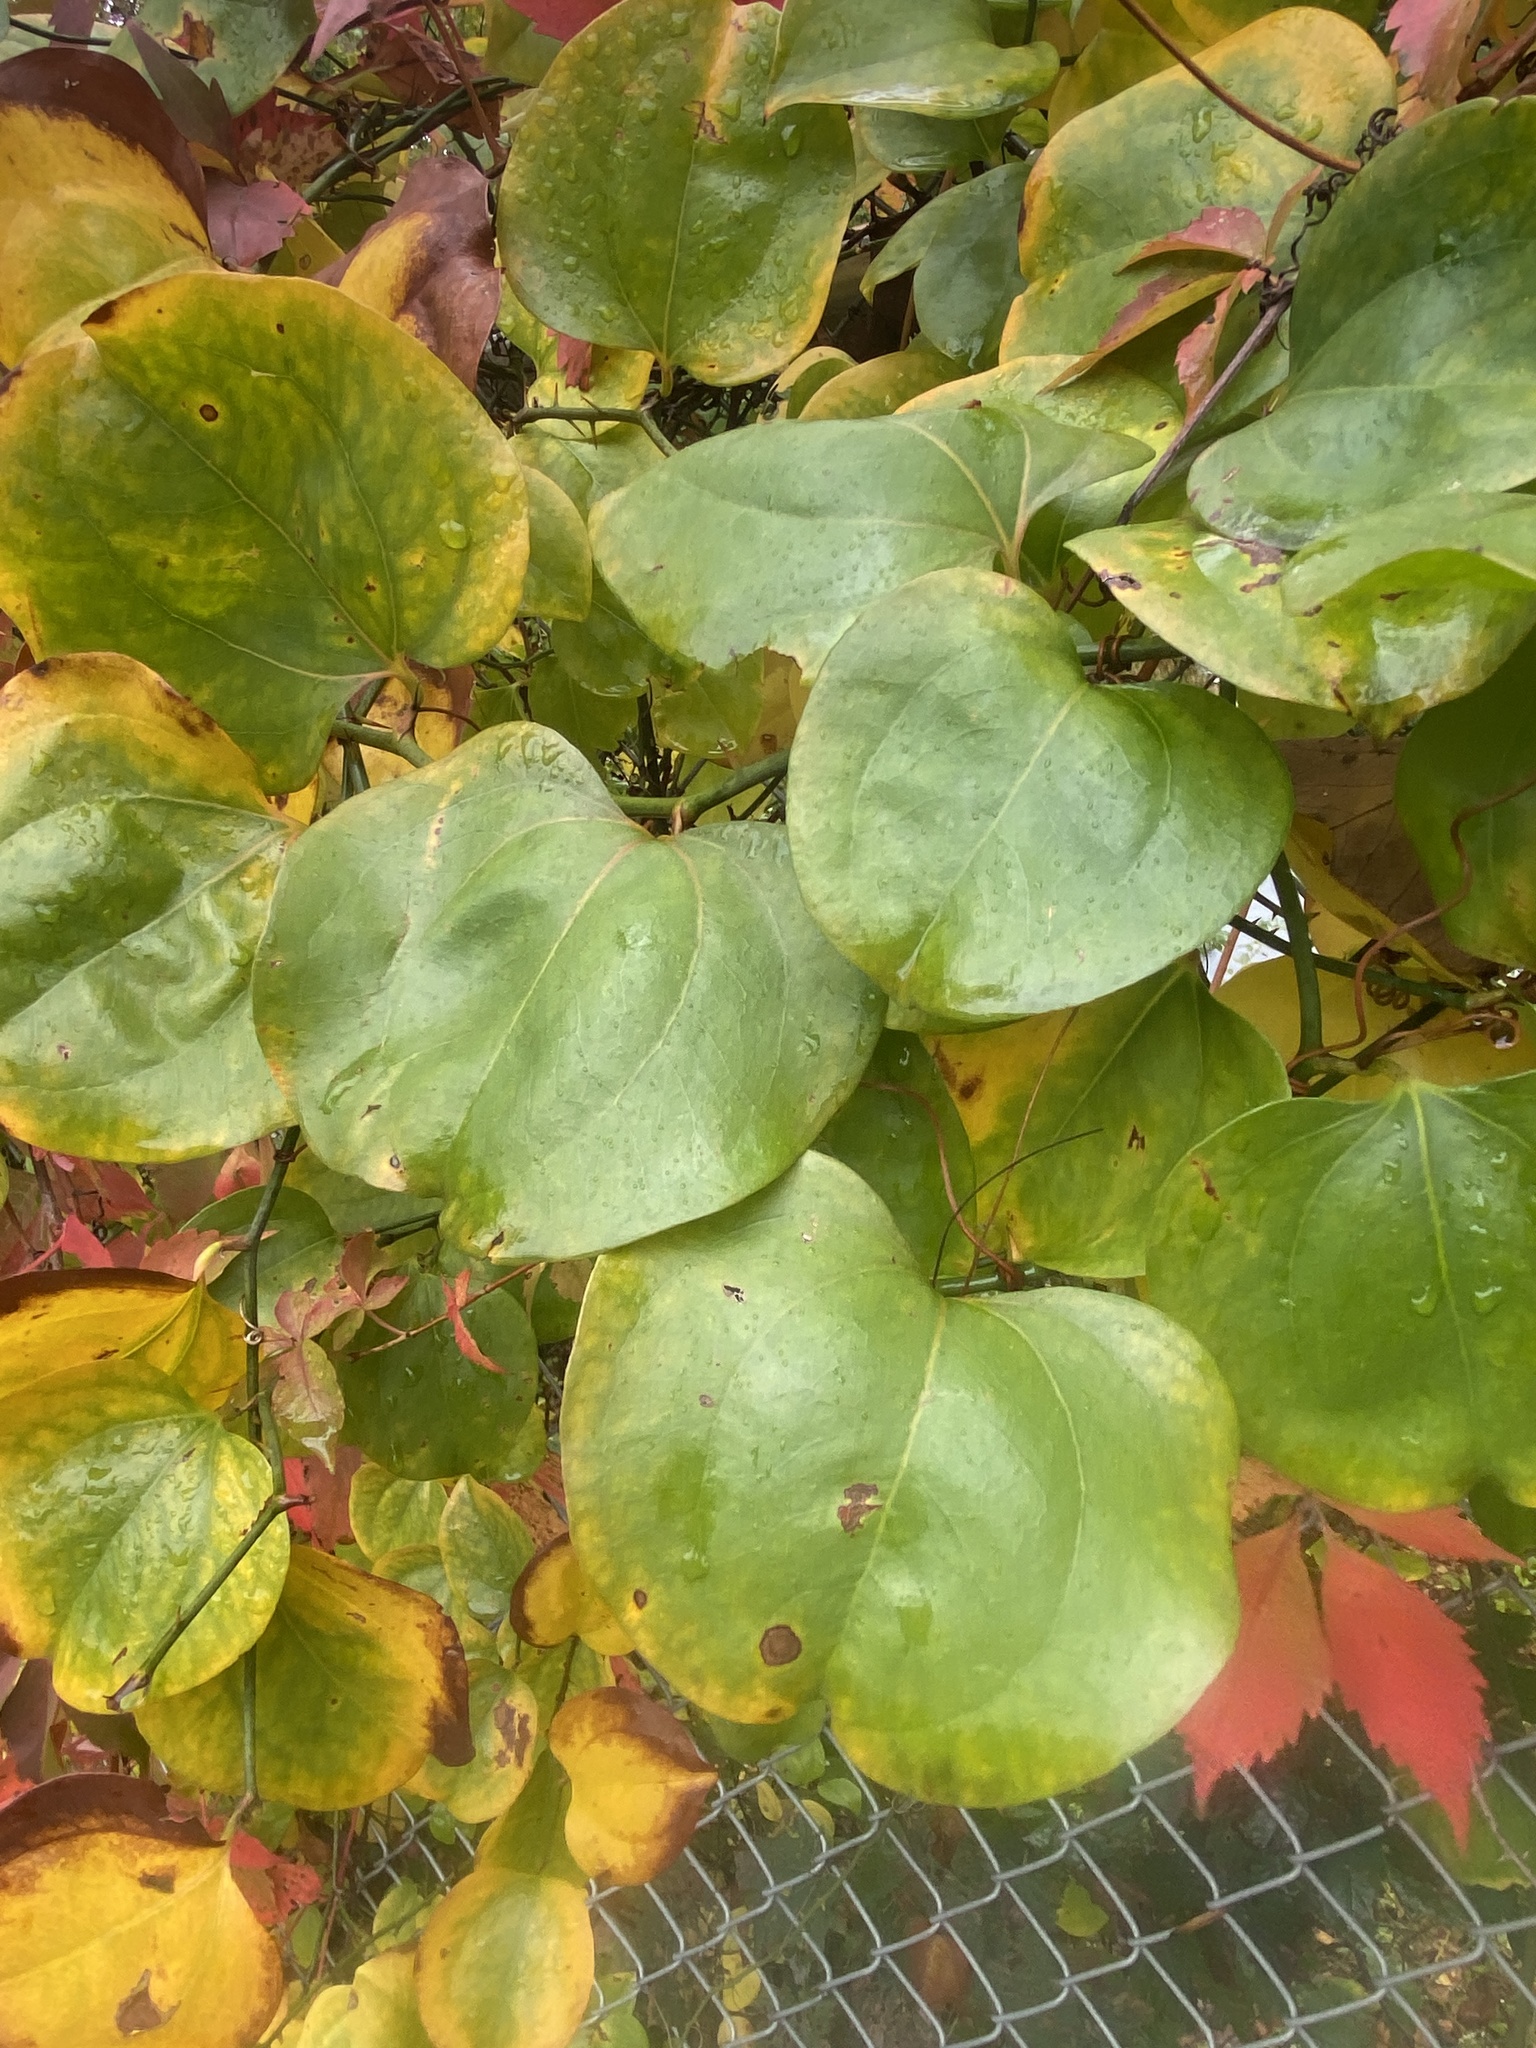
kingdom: Plantae
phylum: Tracheophyta
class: Liliopsida
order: Liliales
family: Smilacaceae
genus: Smilax
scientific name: Smilax rotundifolia
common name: Bullbriar
